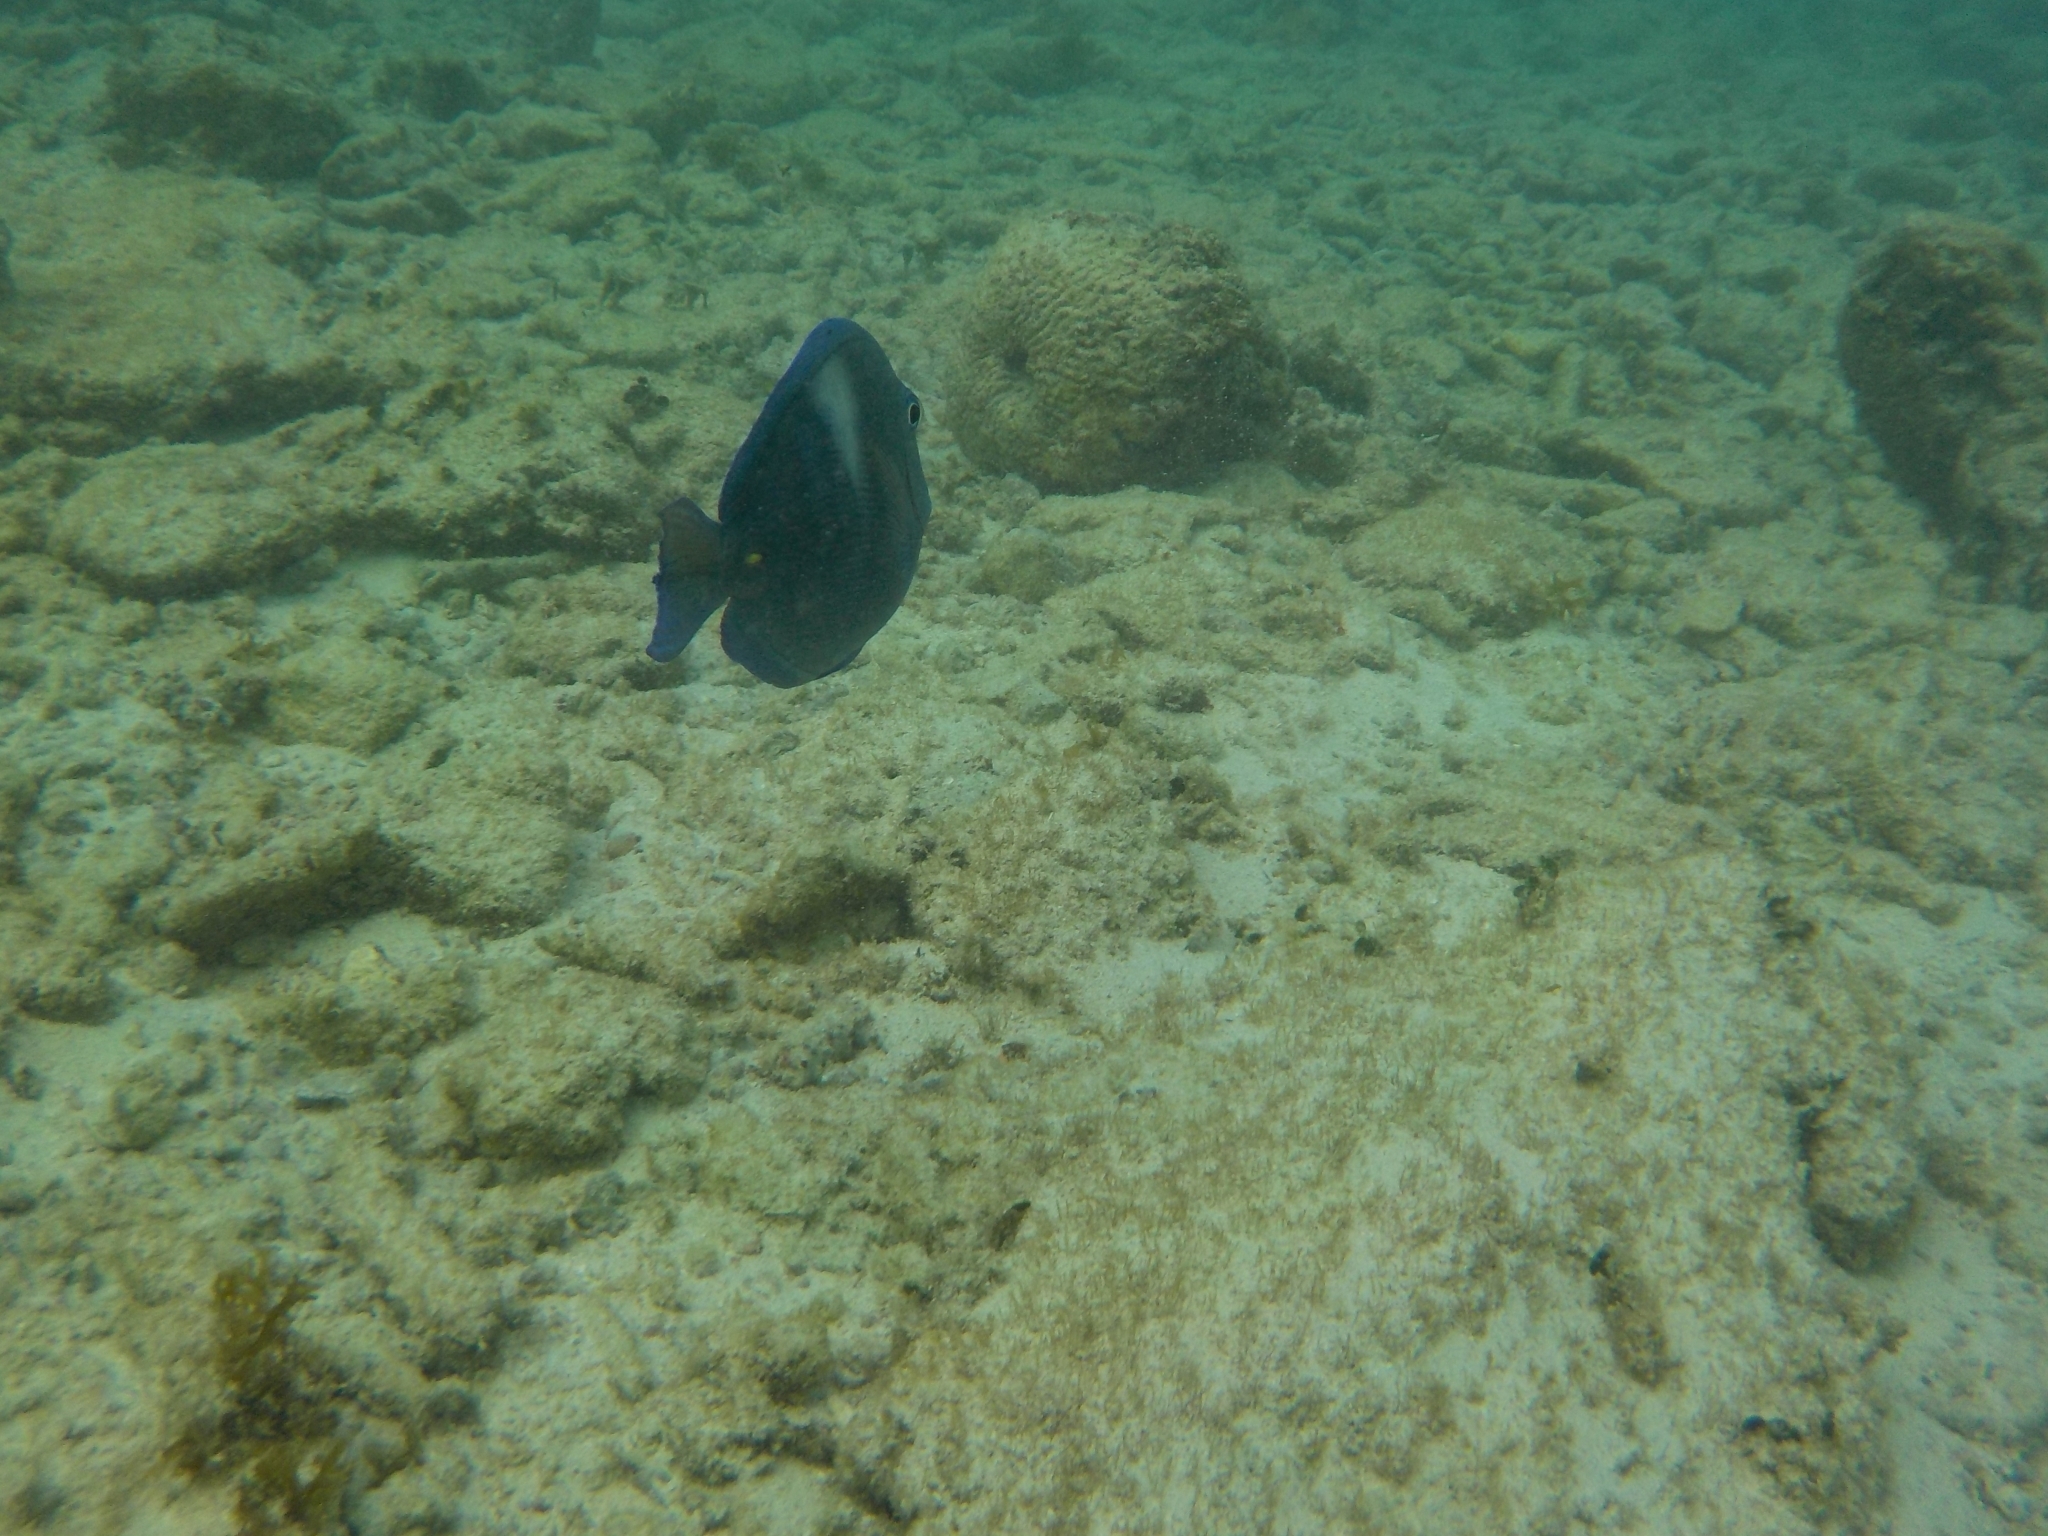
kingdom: Animalia
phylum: Chordata
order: Perciformes
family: Acanthuridae
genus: Acanthurus
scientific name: Acanthurus coeruleus
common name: Blue tang
